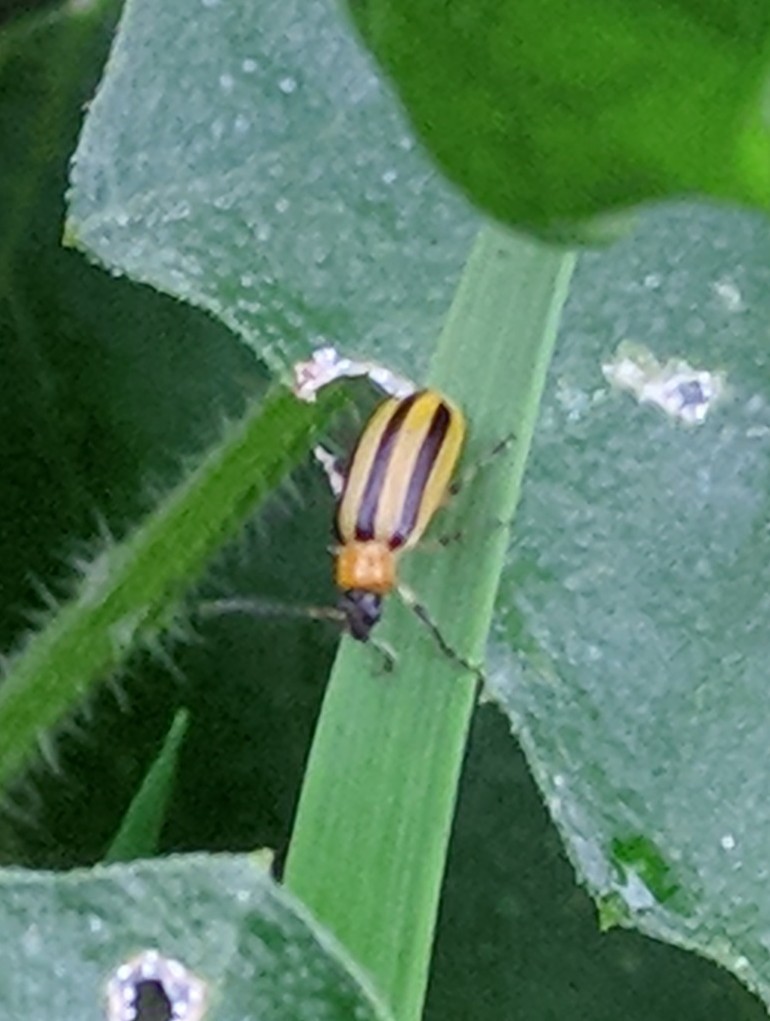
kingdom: Animalia
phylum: Arthropoda
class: Insecta
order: Coleoptera
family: Chrysomelidae
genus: Acalymma
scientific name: Acalymma vittatum
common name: Striped cucumber beetle
